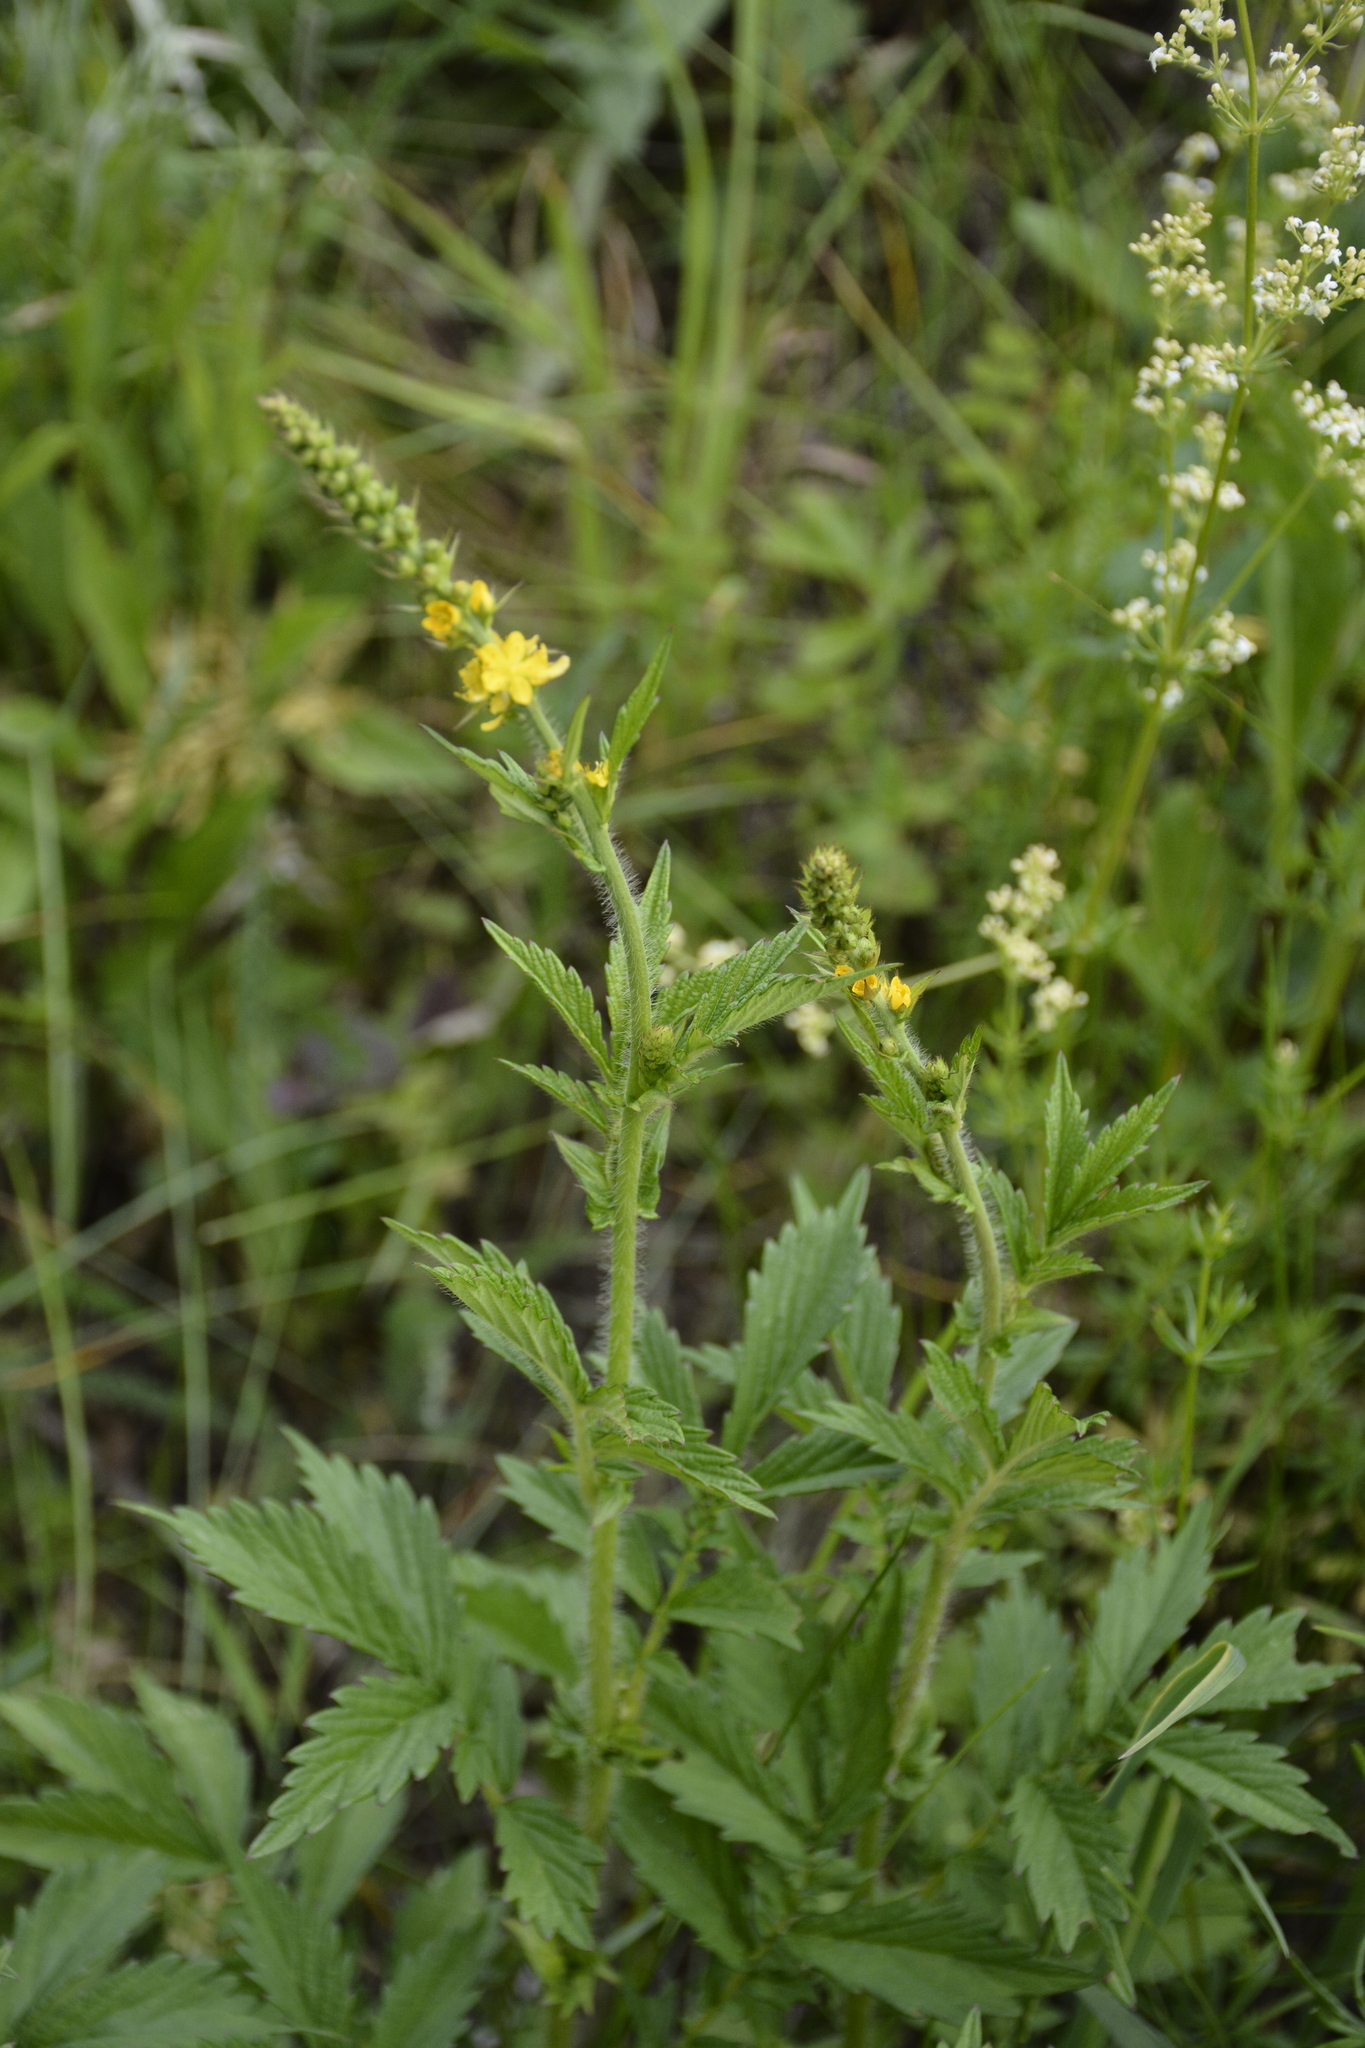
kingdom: Plantae
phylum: Tracheophyta
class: Magnoliopsida
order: Rosales
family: Rosaceae
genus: Agrimonia
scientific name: Agrimonia pilosa
